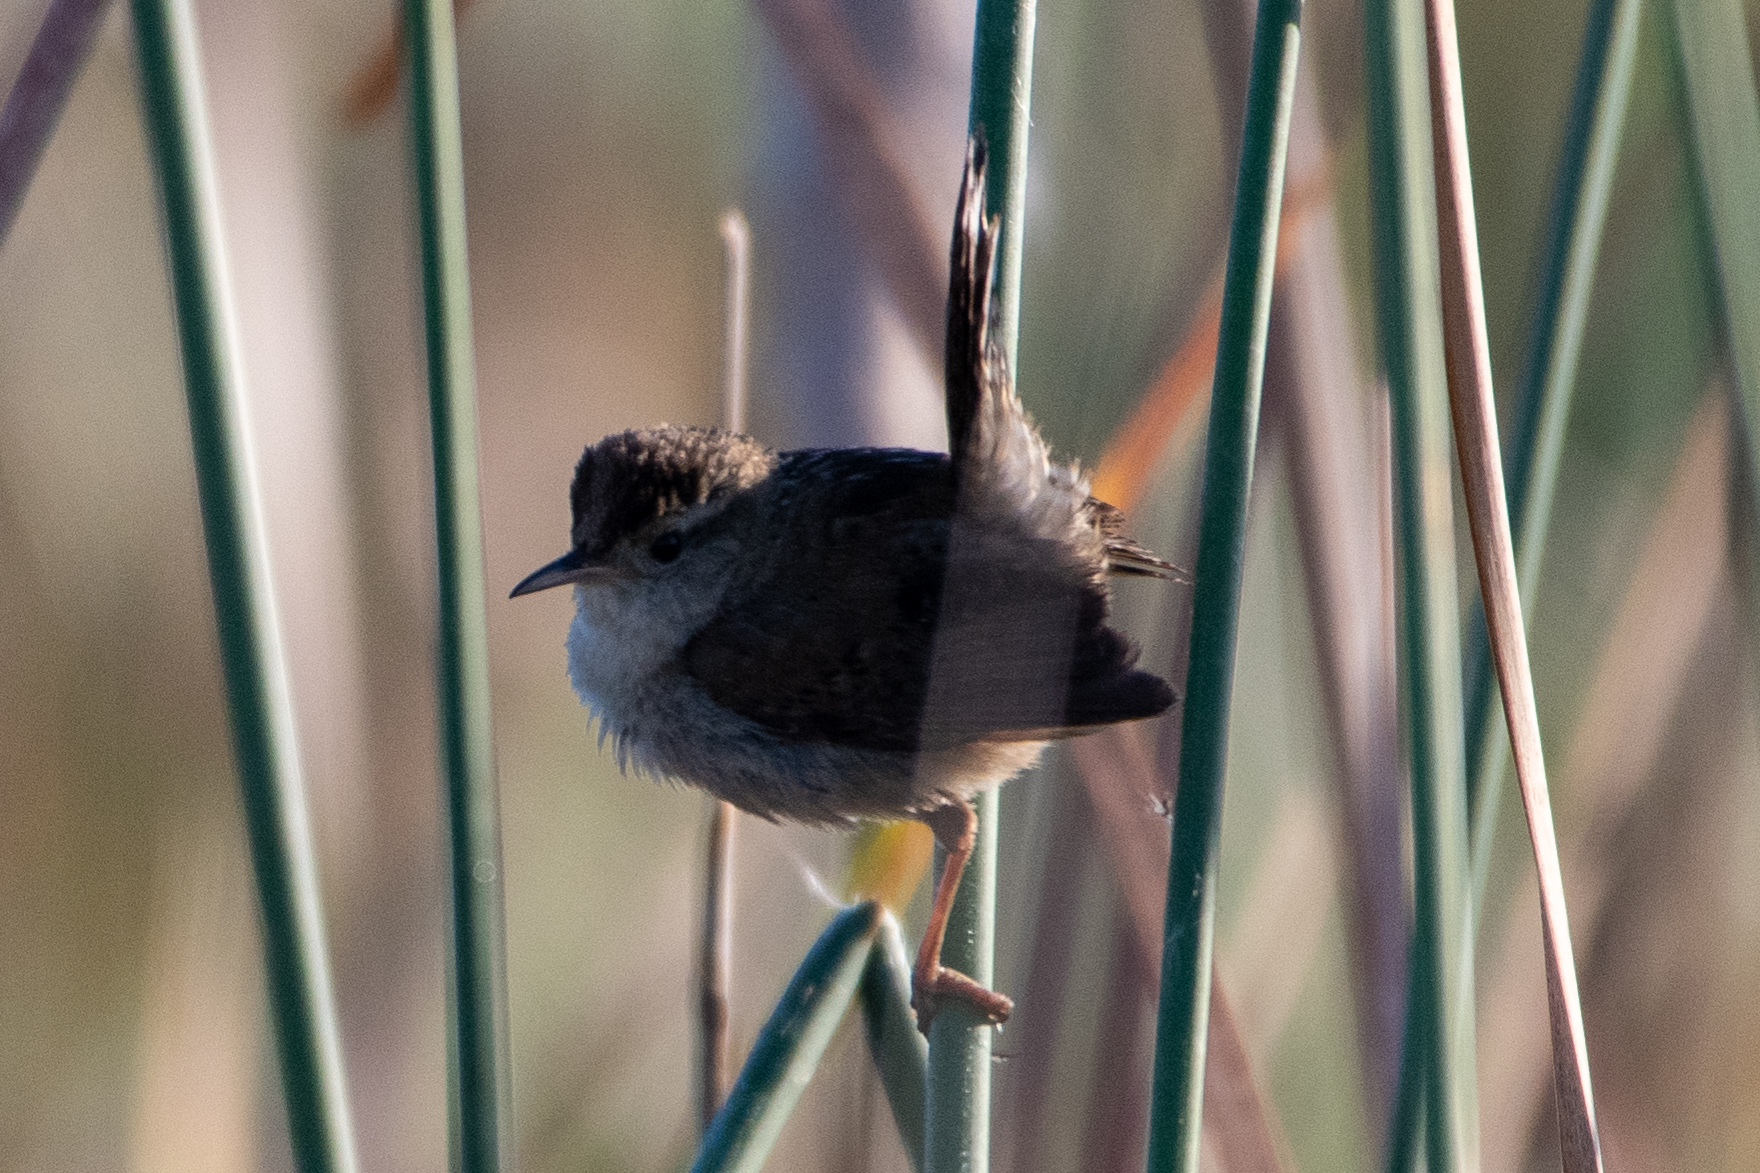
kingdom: Animalia
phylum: Chordata
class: Aves
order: Passeriformes
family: Troglodytidae
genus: Cistothorus
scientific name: Cistothorus palustris
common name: Marsh wren
